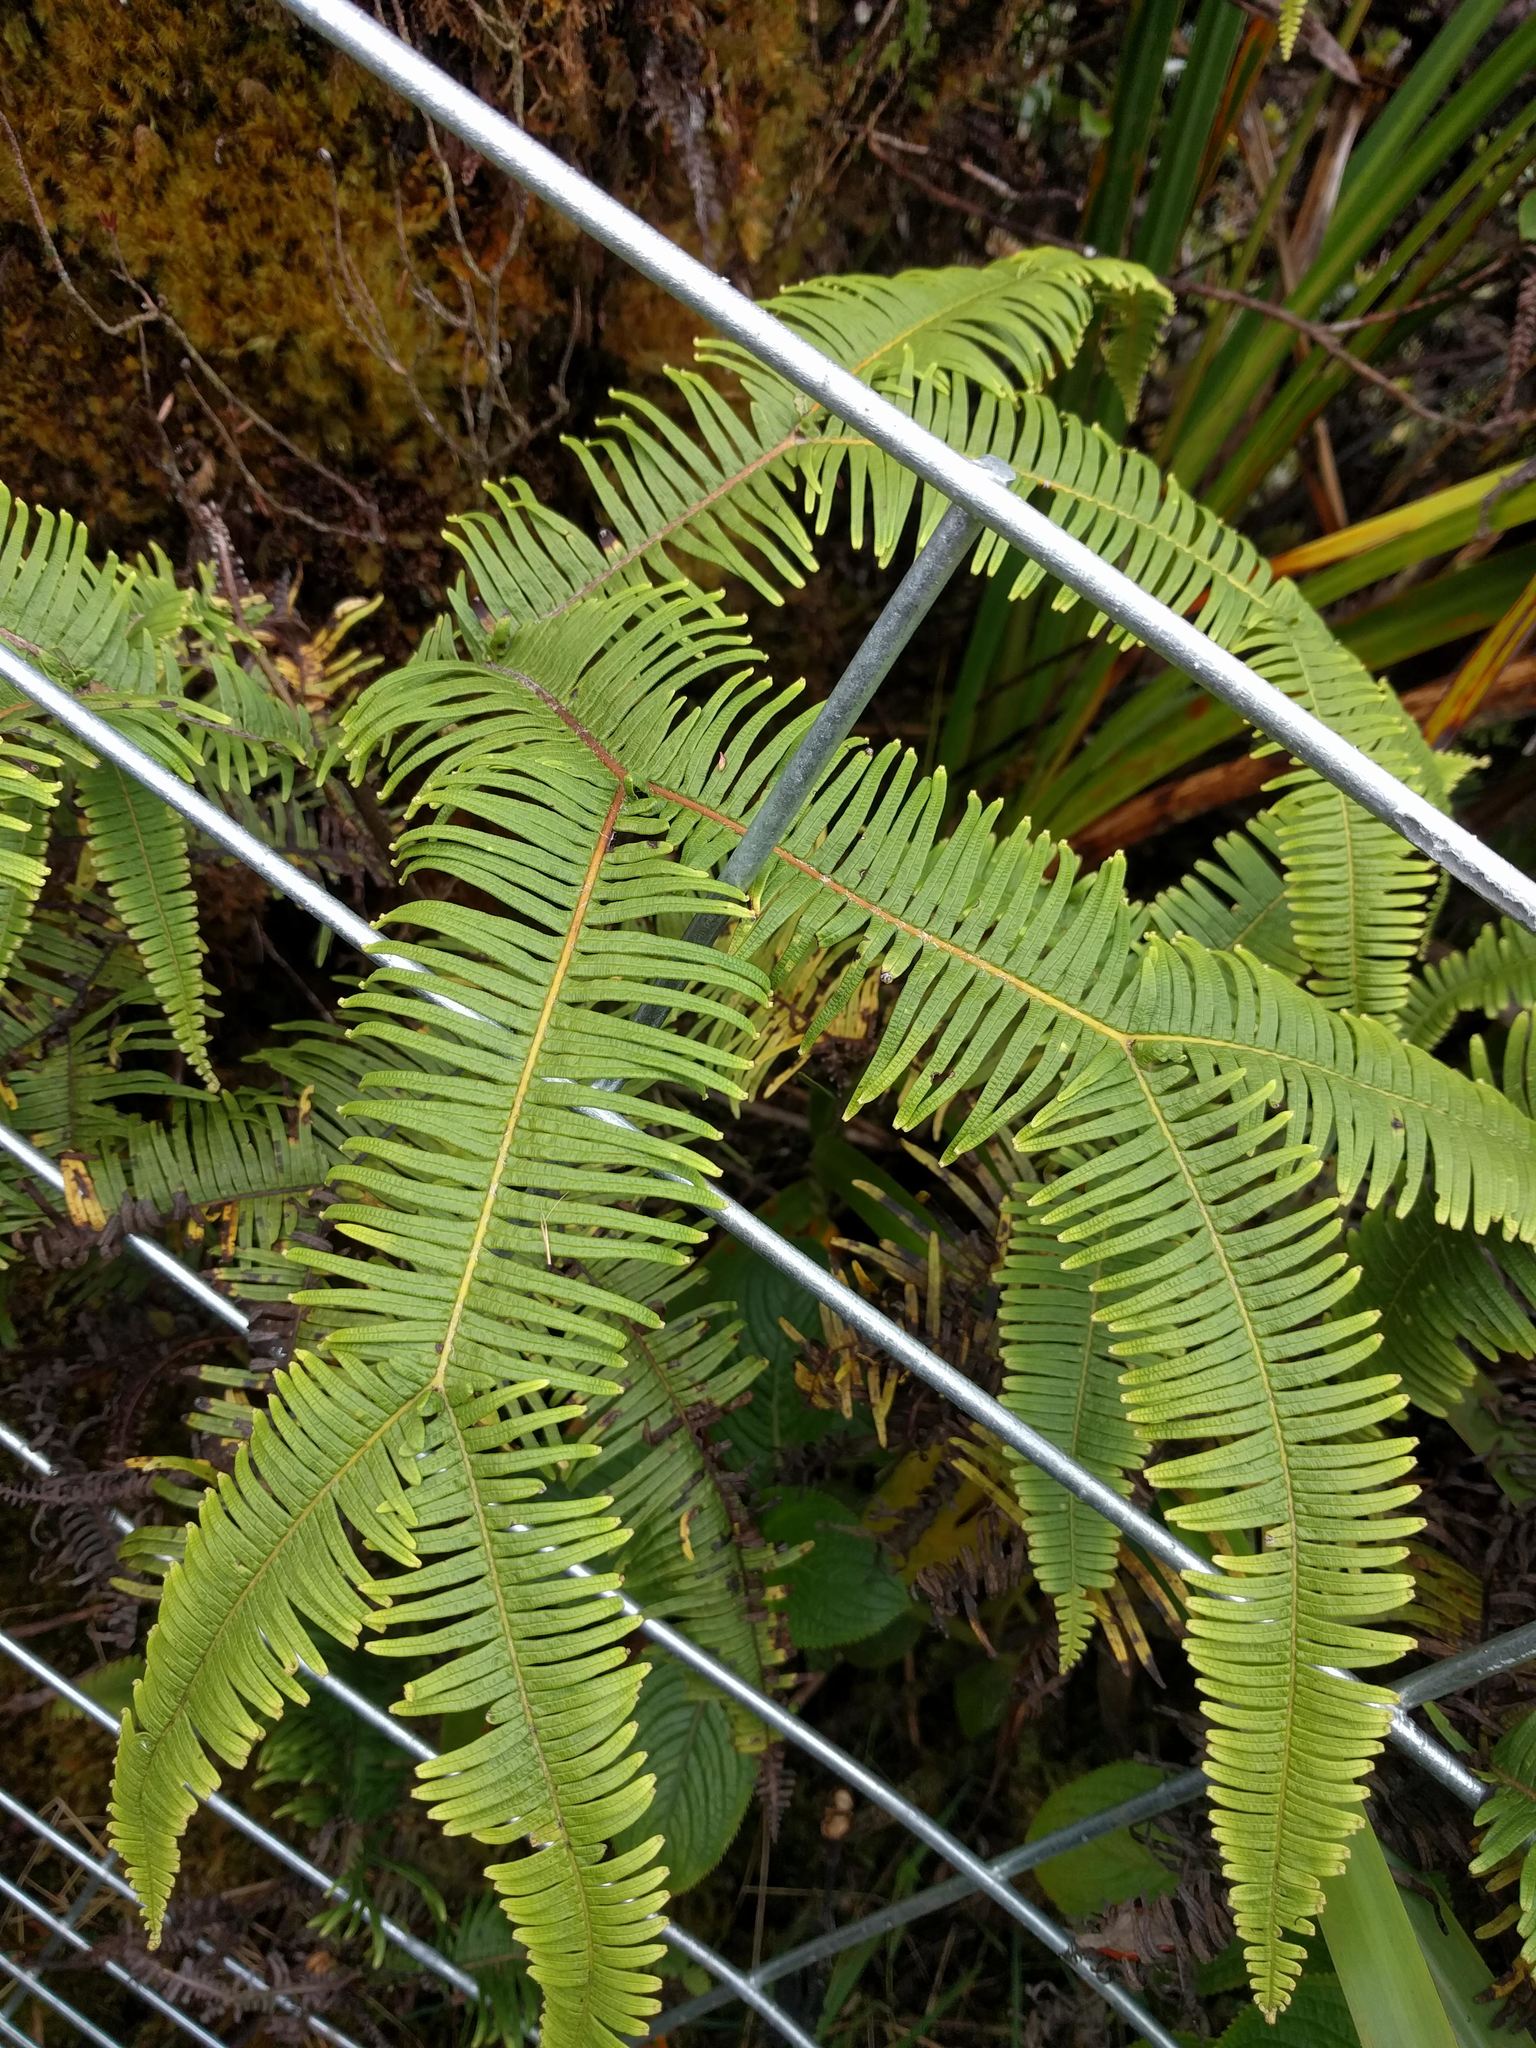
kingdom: Plantae
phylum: Tracheophyta
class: Polypodiopsida
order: Gleicheniales
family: Gleicheniaceae
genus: Sticherus
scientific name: Sticherus owhyhensis
